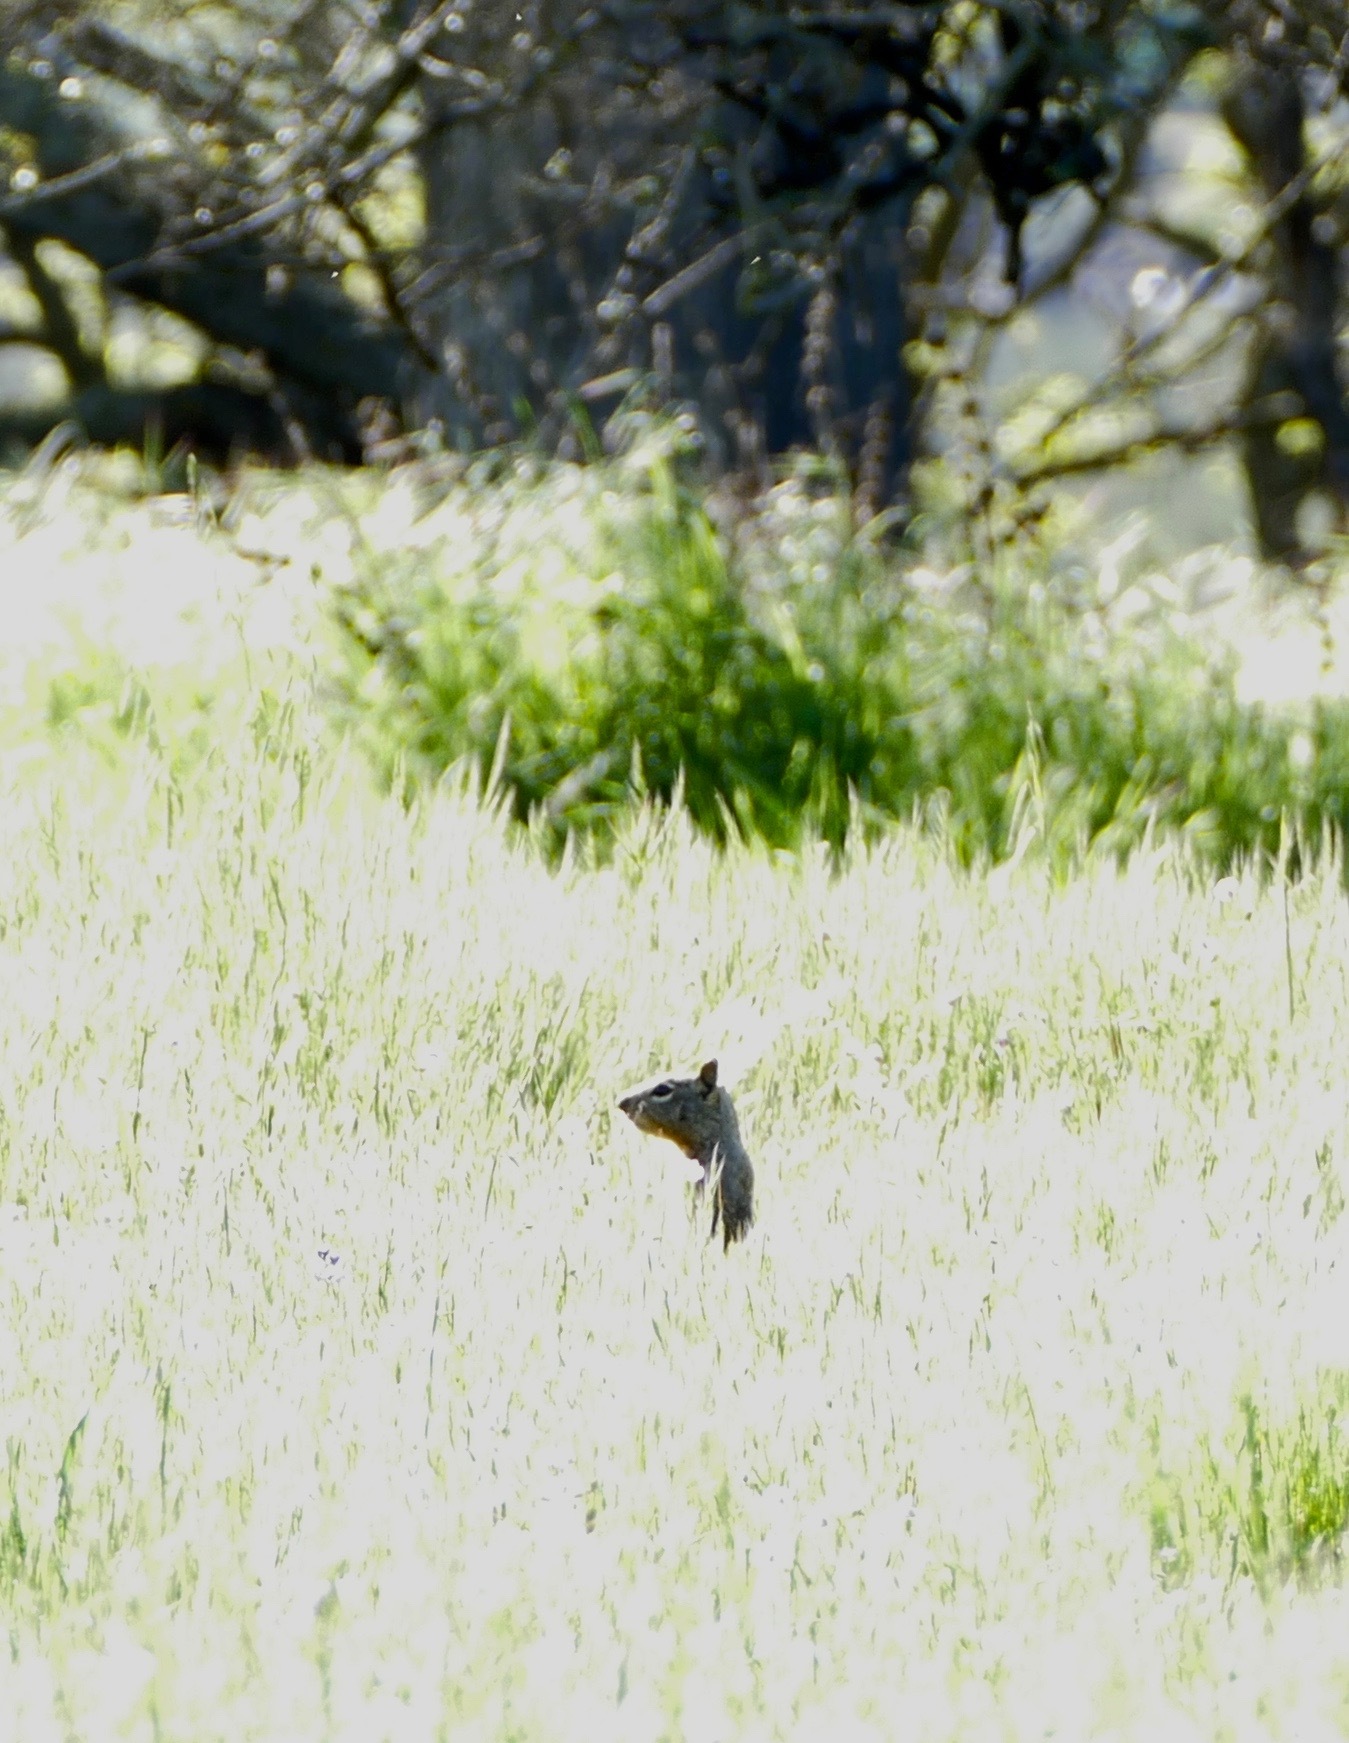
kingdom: Animalia
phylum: Chordata
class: Mammalia
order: Rodentia
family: Sciuridae
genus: Otospermophilus
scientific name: Otospermophilus beecheyi
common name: California ground squirrel
